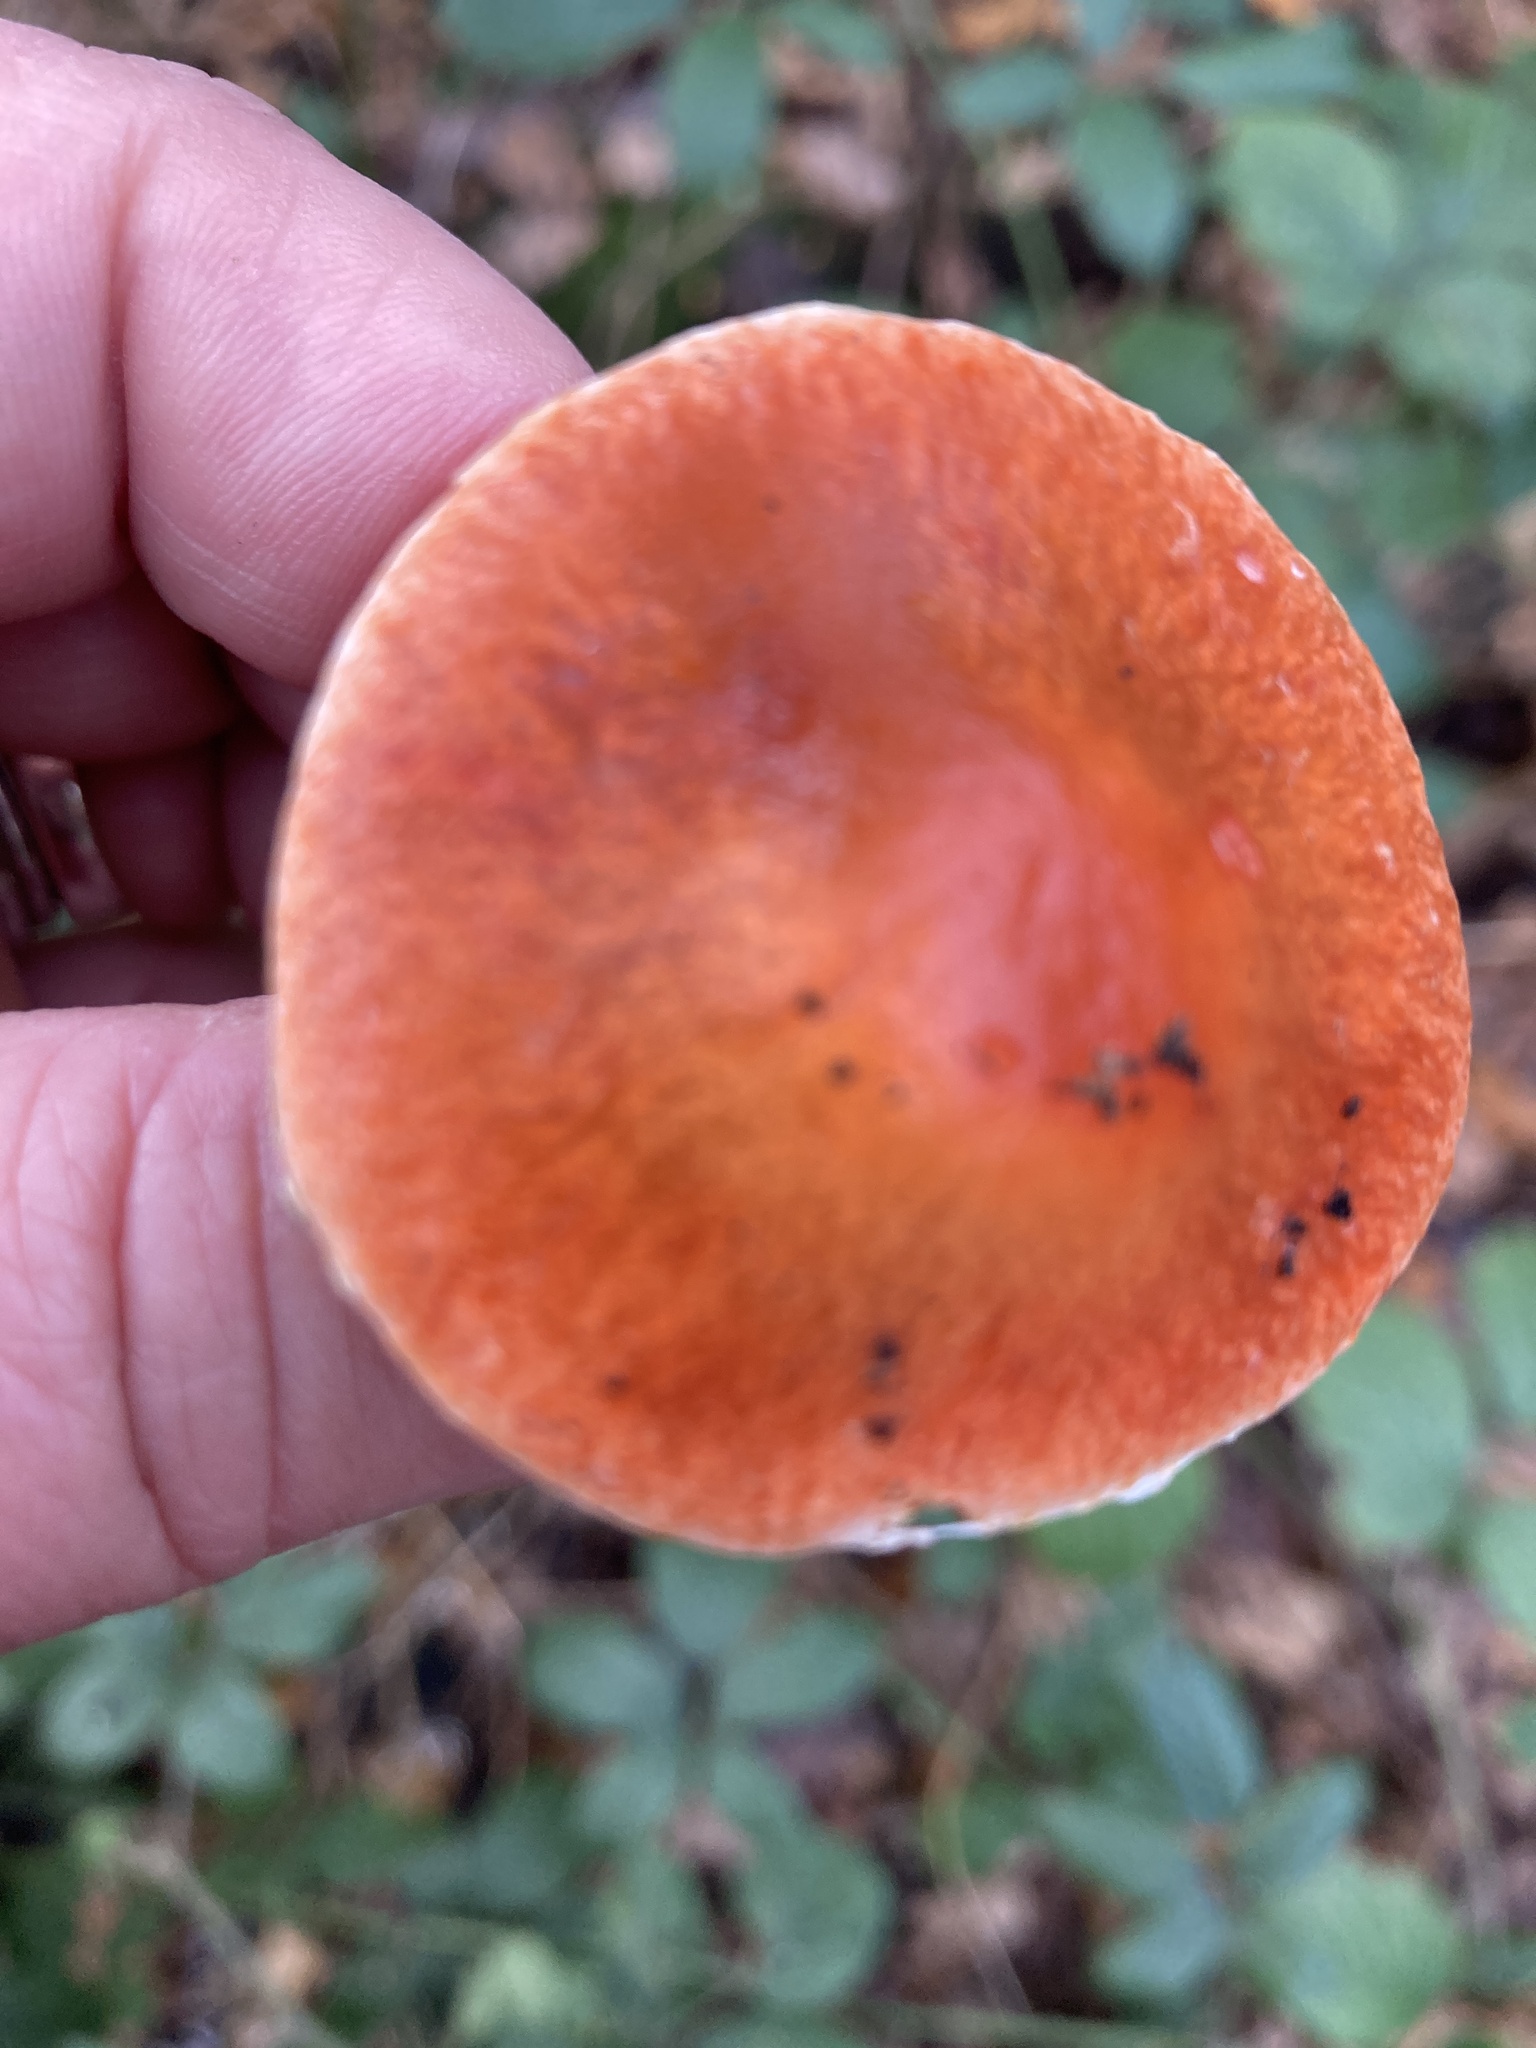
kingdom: Fungi
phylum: Basidiomycota
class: Agaricomycetes
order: Agaricales
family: Strophariaceae
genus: Leratiomyces
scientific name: Leratiomyces ceres
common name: Redlead roundhead
